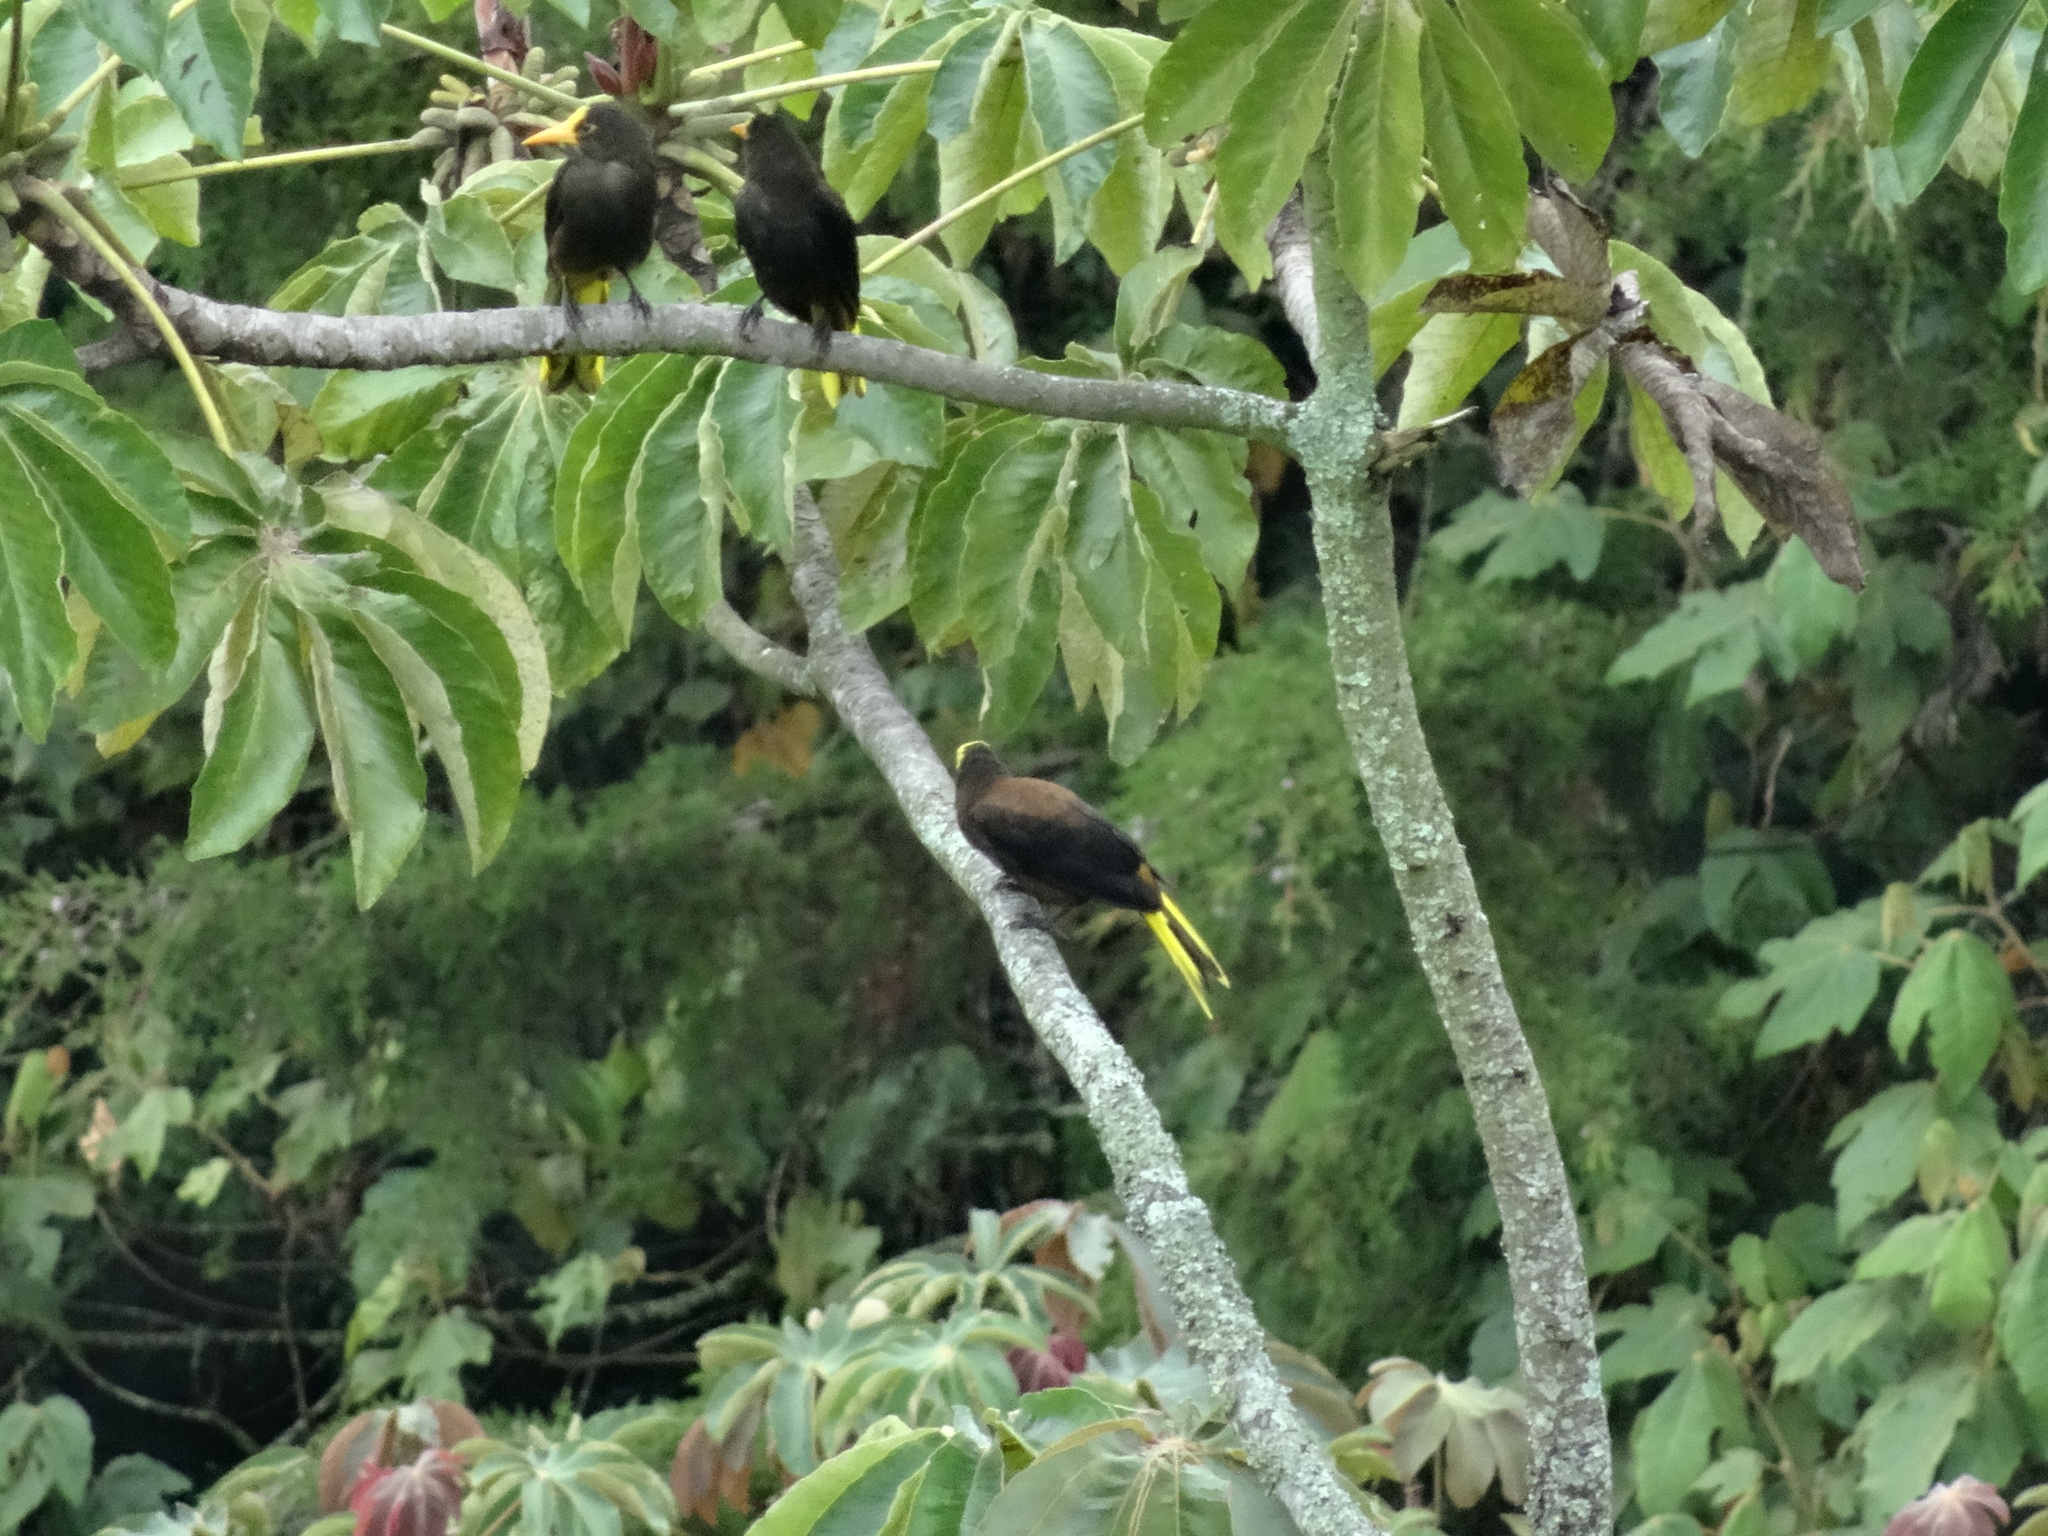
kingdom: Animalia
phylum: Chordata
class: Aves
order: Passeriformes
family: Icteridae
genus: Psarocolius
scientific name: Psarocolius angustifrons
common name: Russet-backed oropendola
